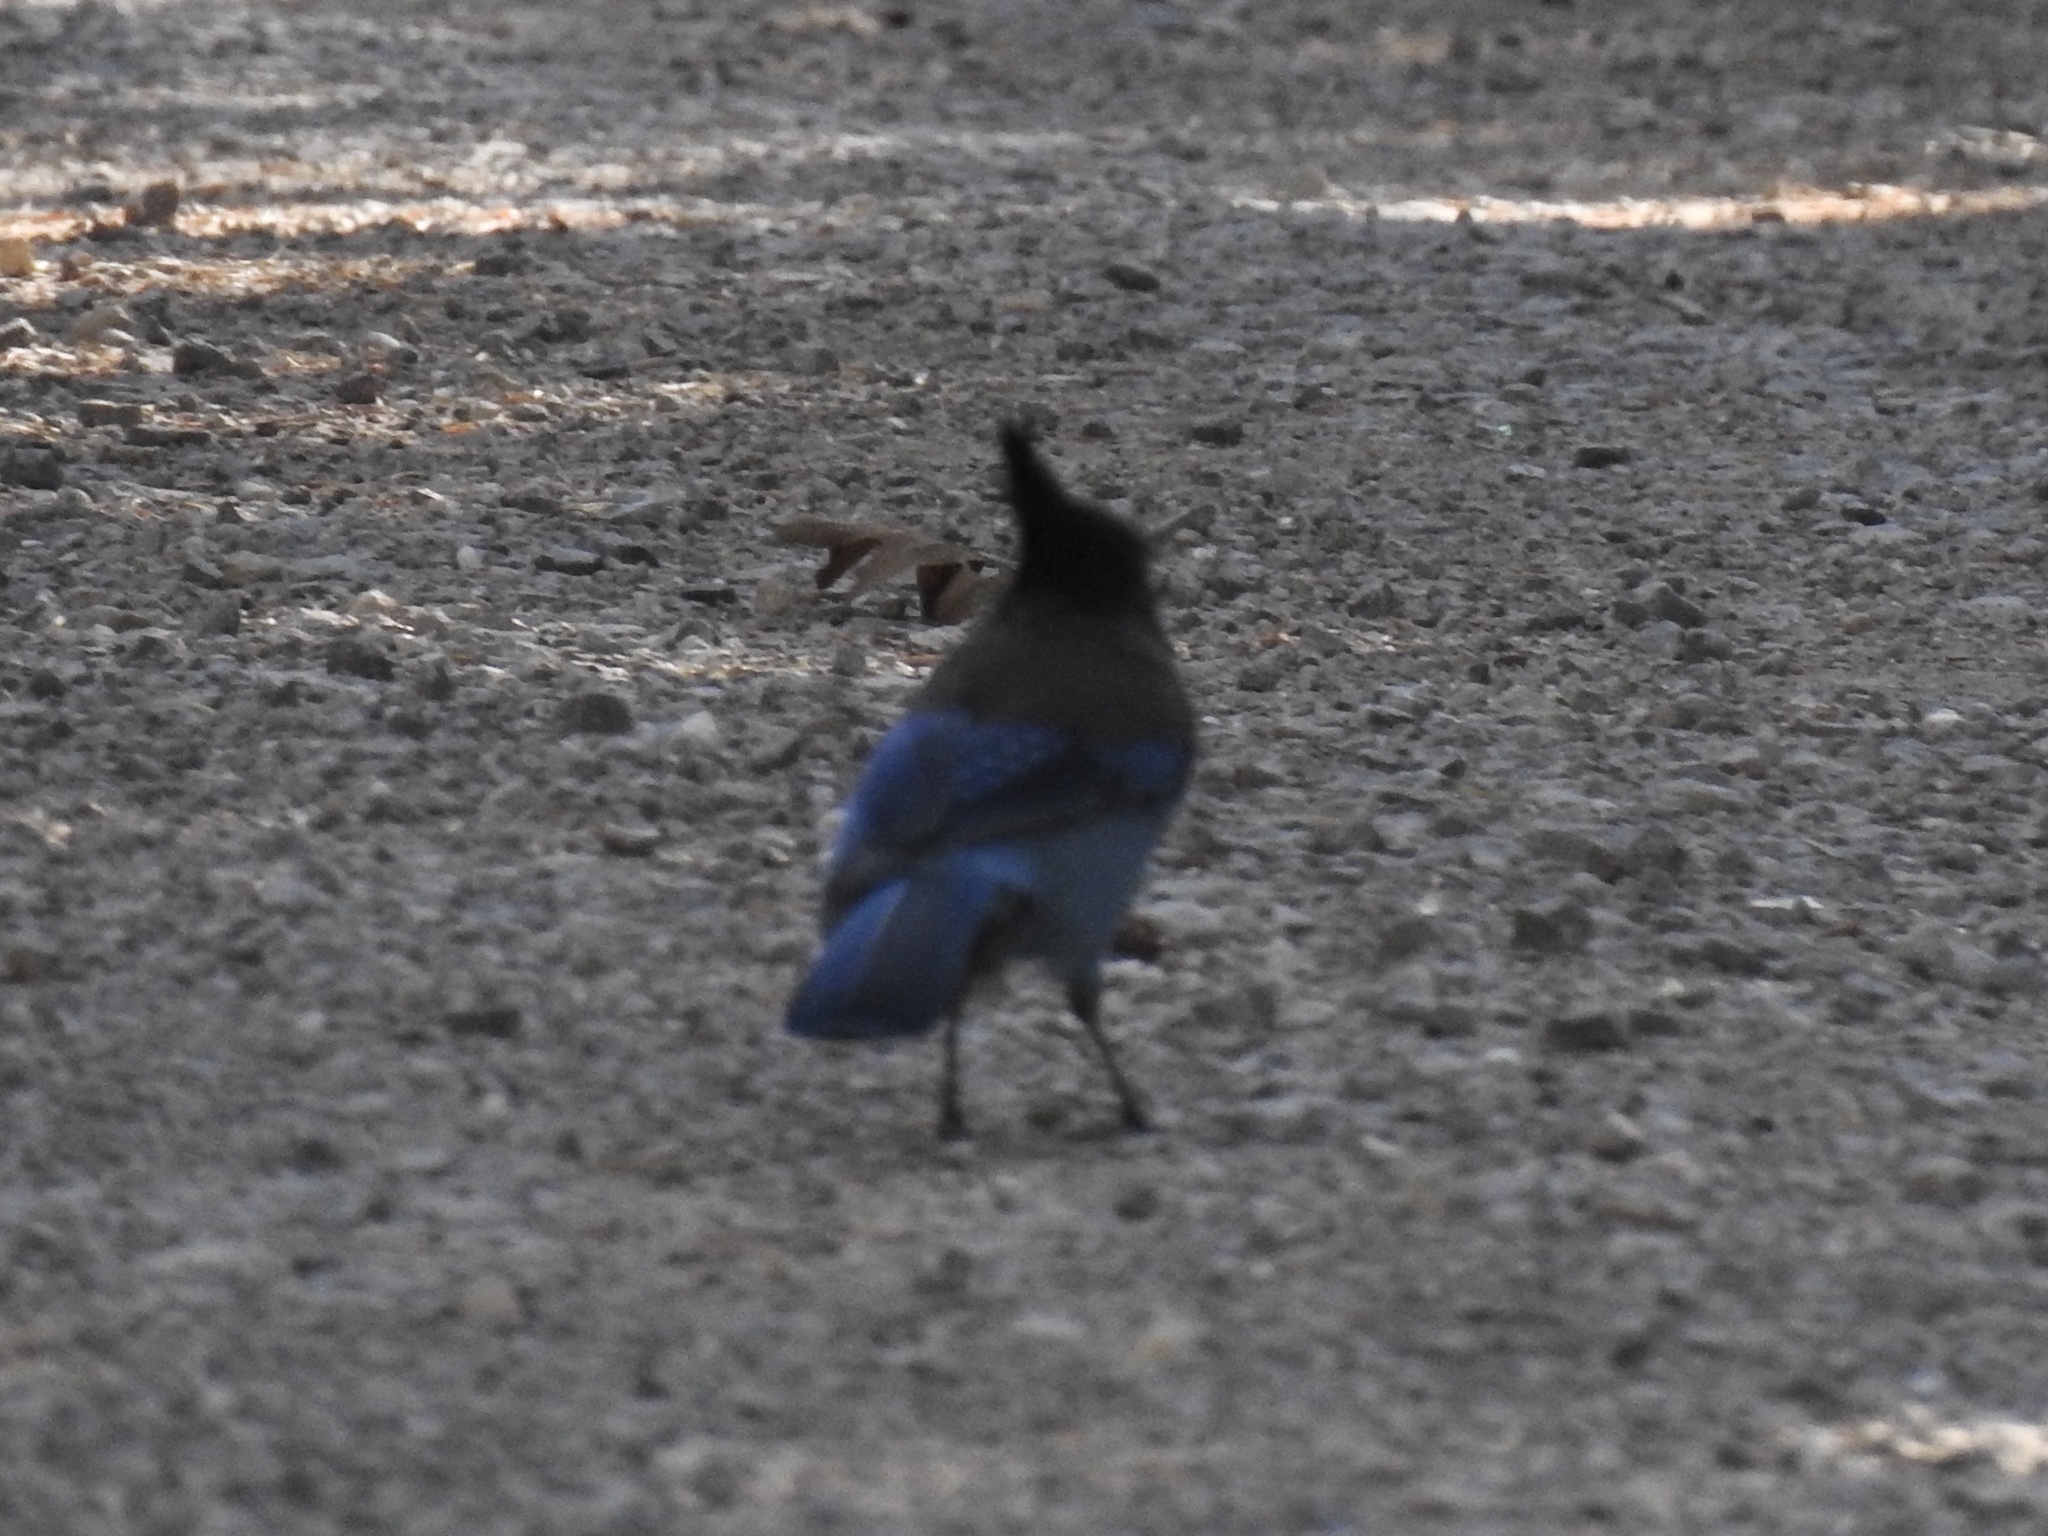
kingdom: Animalia
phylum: Chordata
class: Aves
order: Passeriformes
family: Corvidae
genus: Cyanocitta
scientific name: Cyanocitta stelleri
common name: Steller's jay
